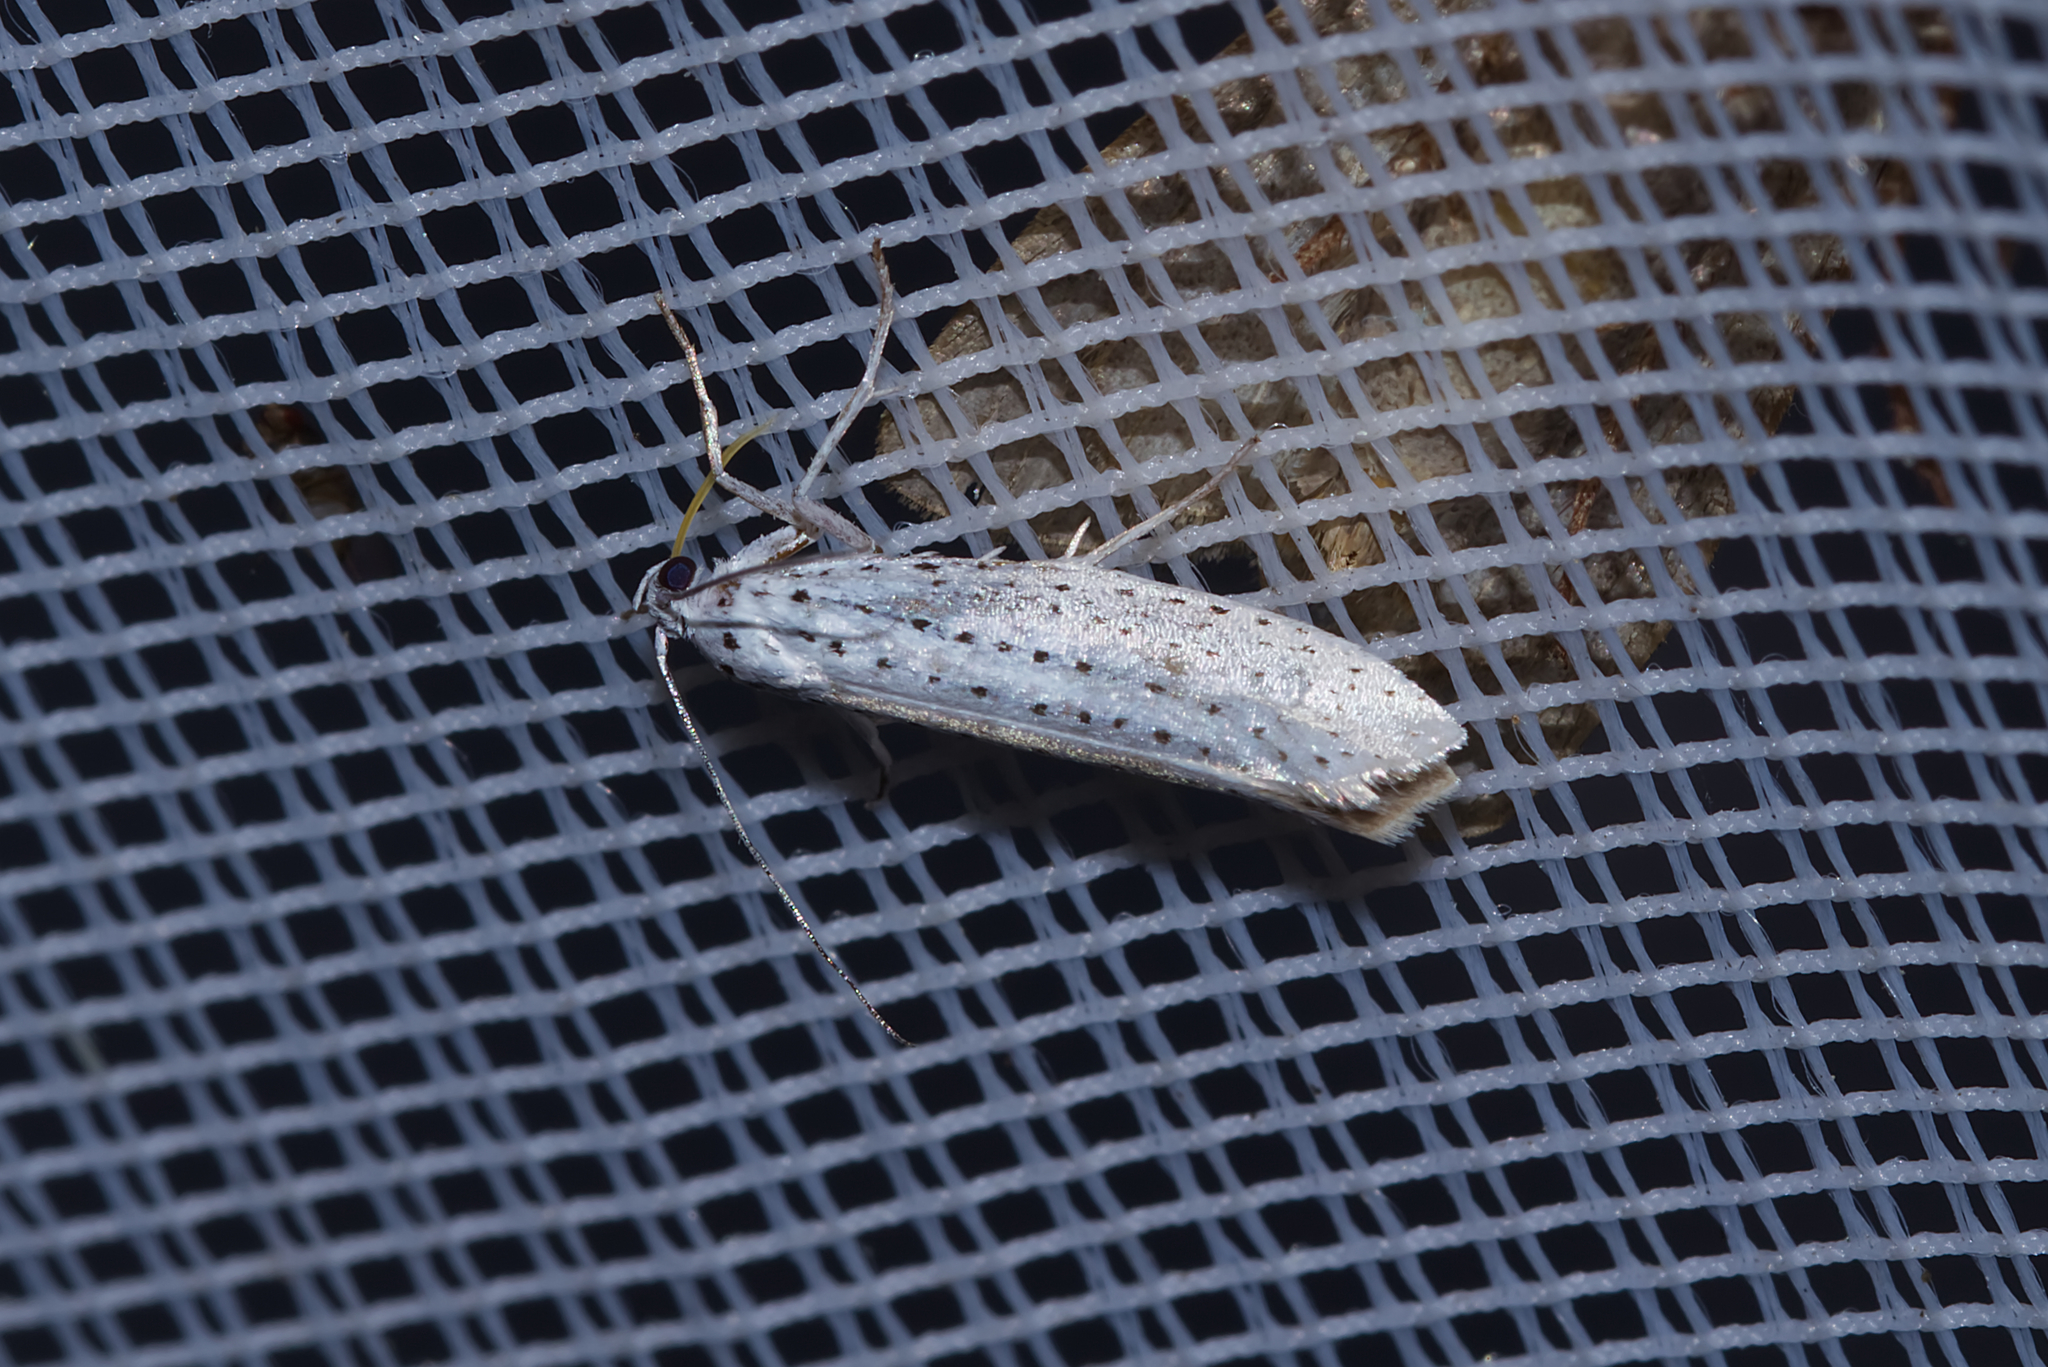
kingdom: Animalia
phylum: Arthropoda
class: Insecta
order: Lepidoptera
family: Yponomeutidae
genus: Yponomeuta
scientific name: Yponomeuta evonymella
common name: Bird-cherry ermine
